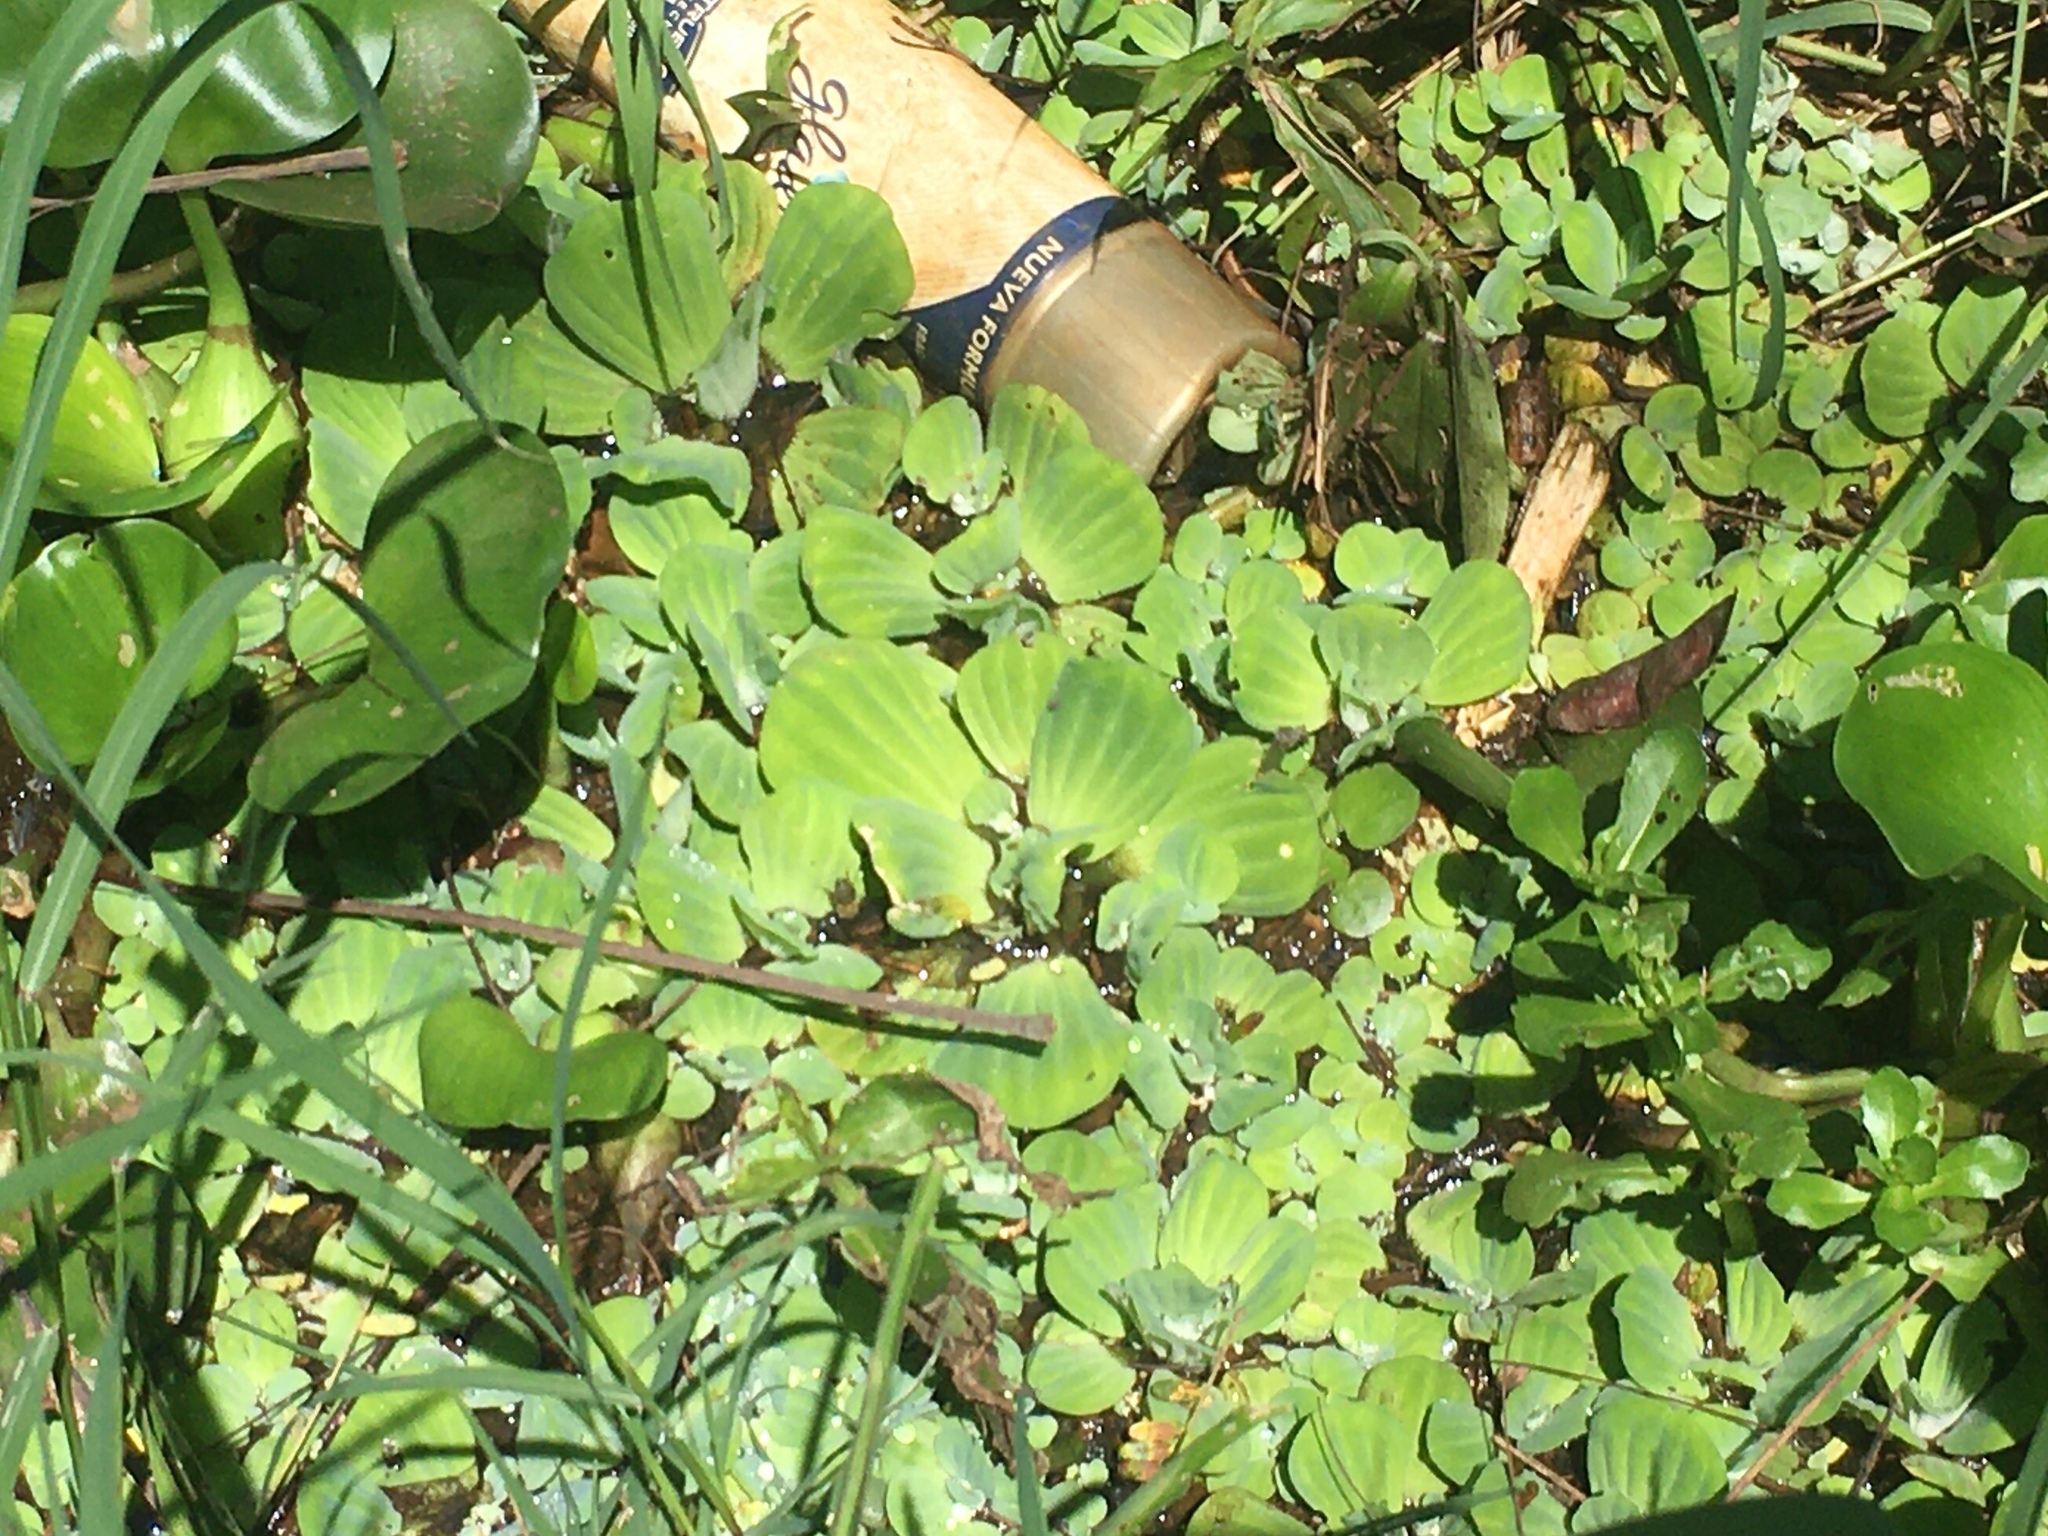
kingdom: Plantae
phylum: Tracheophyta
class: Liliopsida
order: Alismatales
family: Araceae
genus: Pistia
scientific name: Pistia stratiotes
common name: Water lettuce
